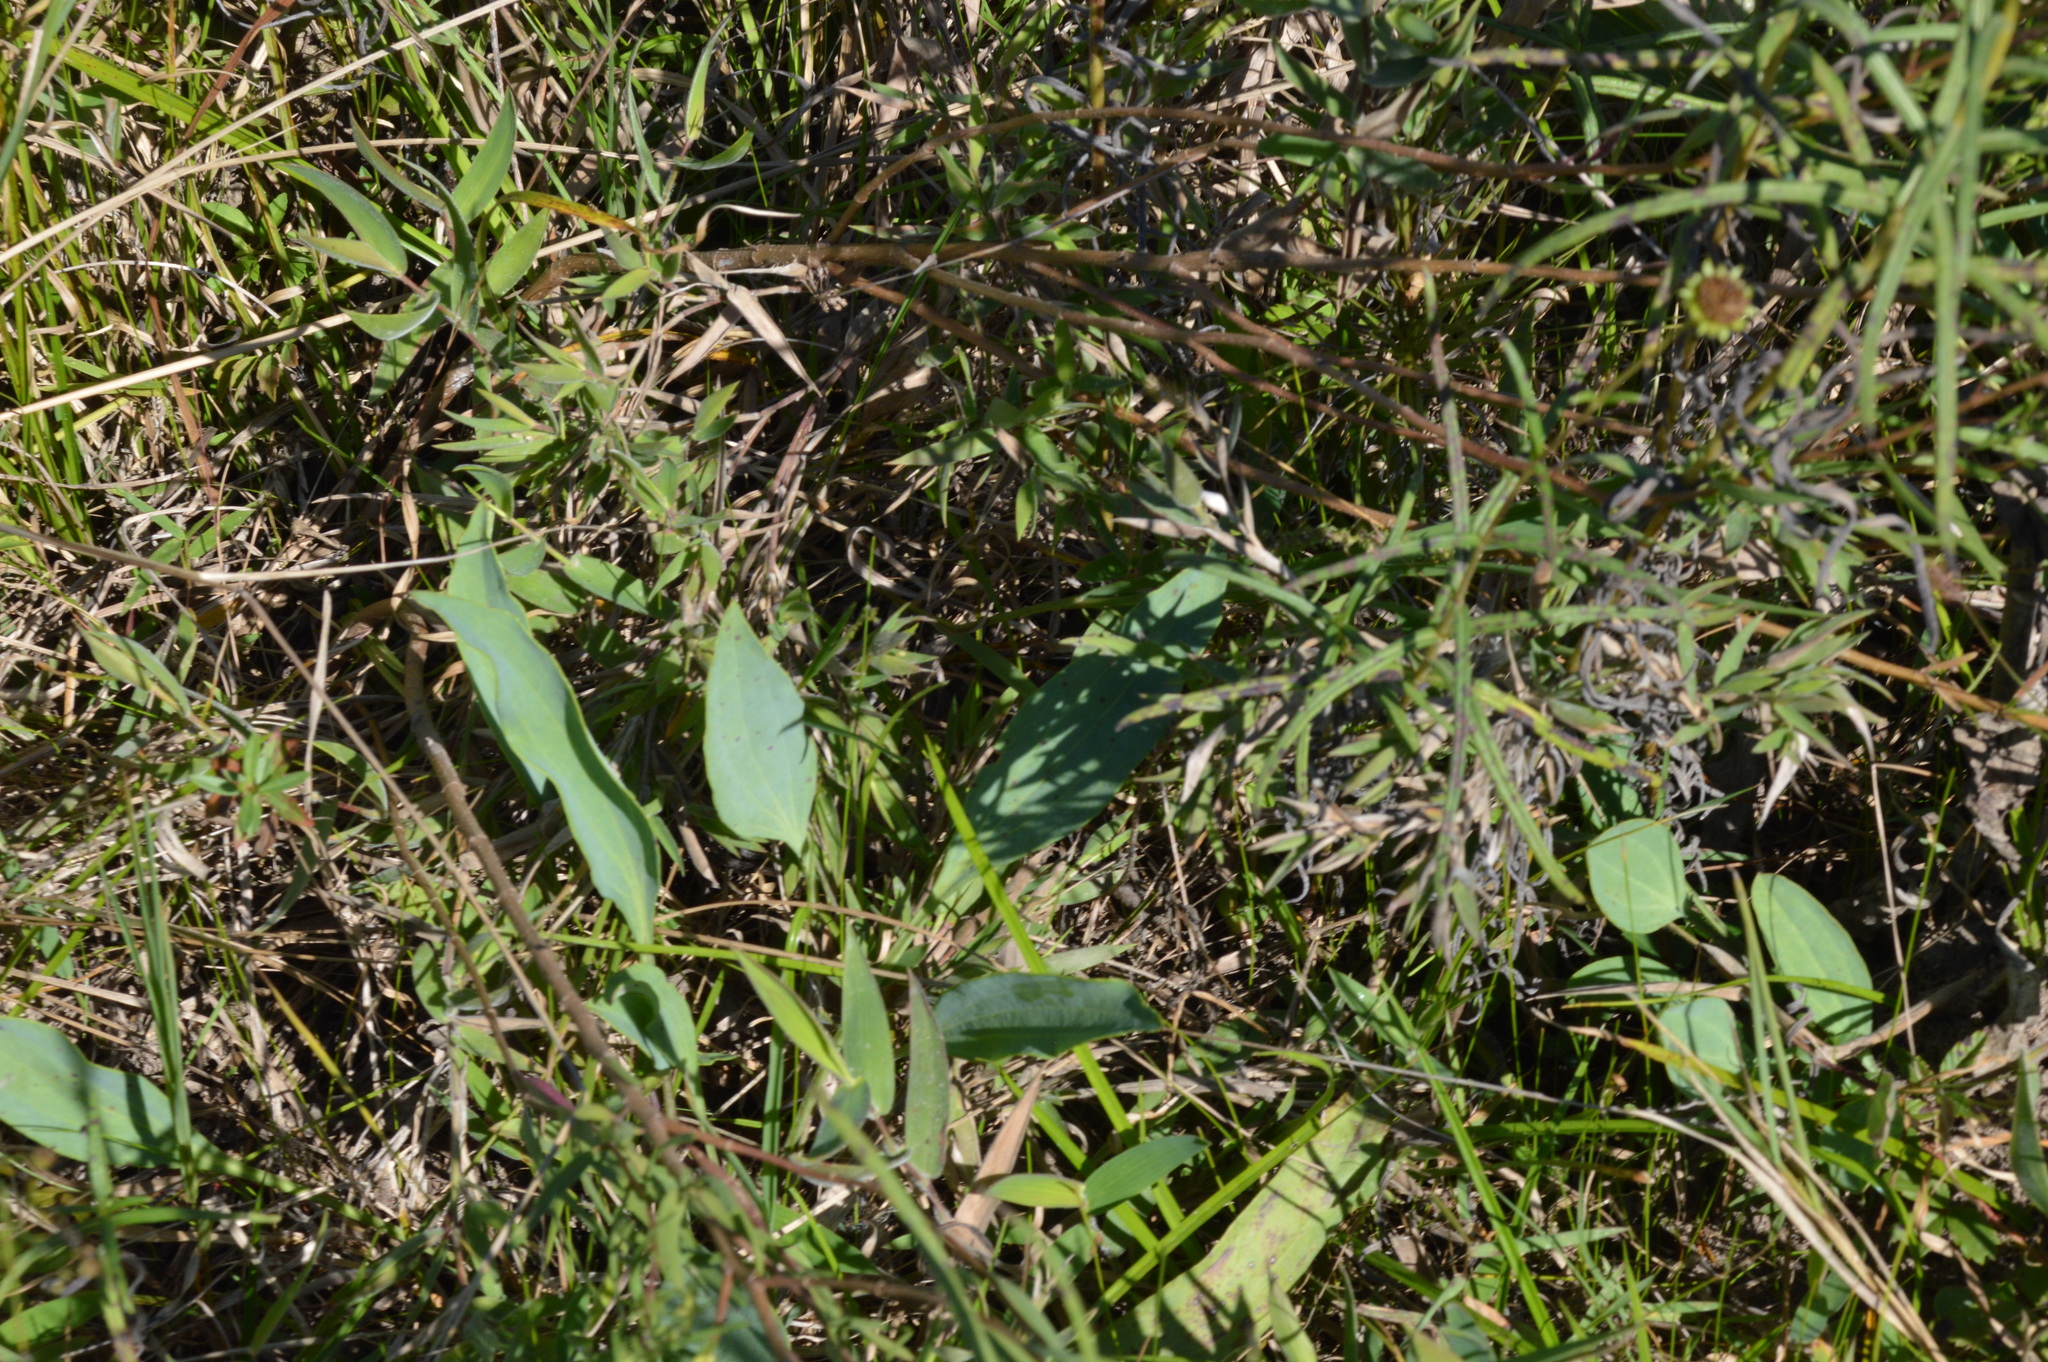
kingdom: Plantae
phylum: Tracheophyta
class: Magnoliopsida
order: Asterales
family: Asteraceae
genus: Arnoglossum
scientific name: Arnoglossum ovatum
